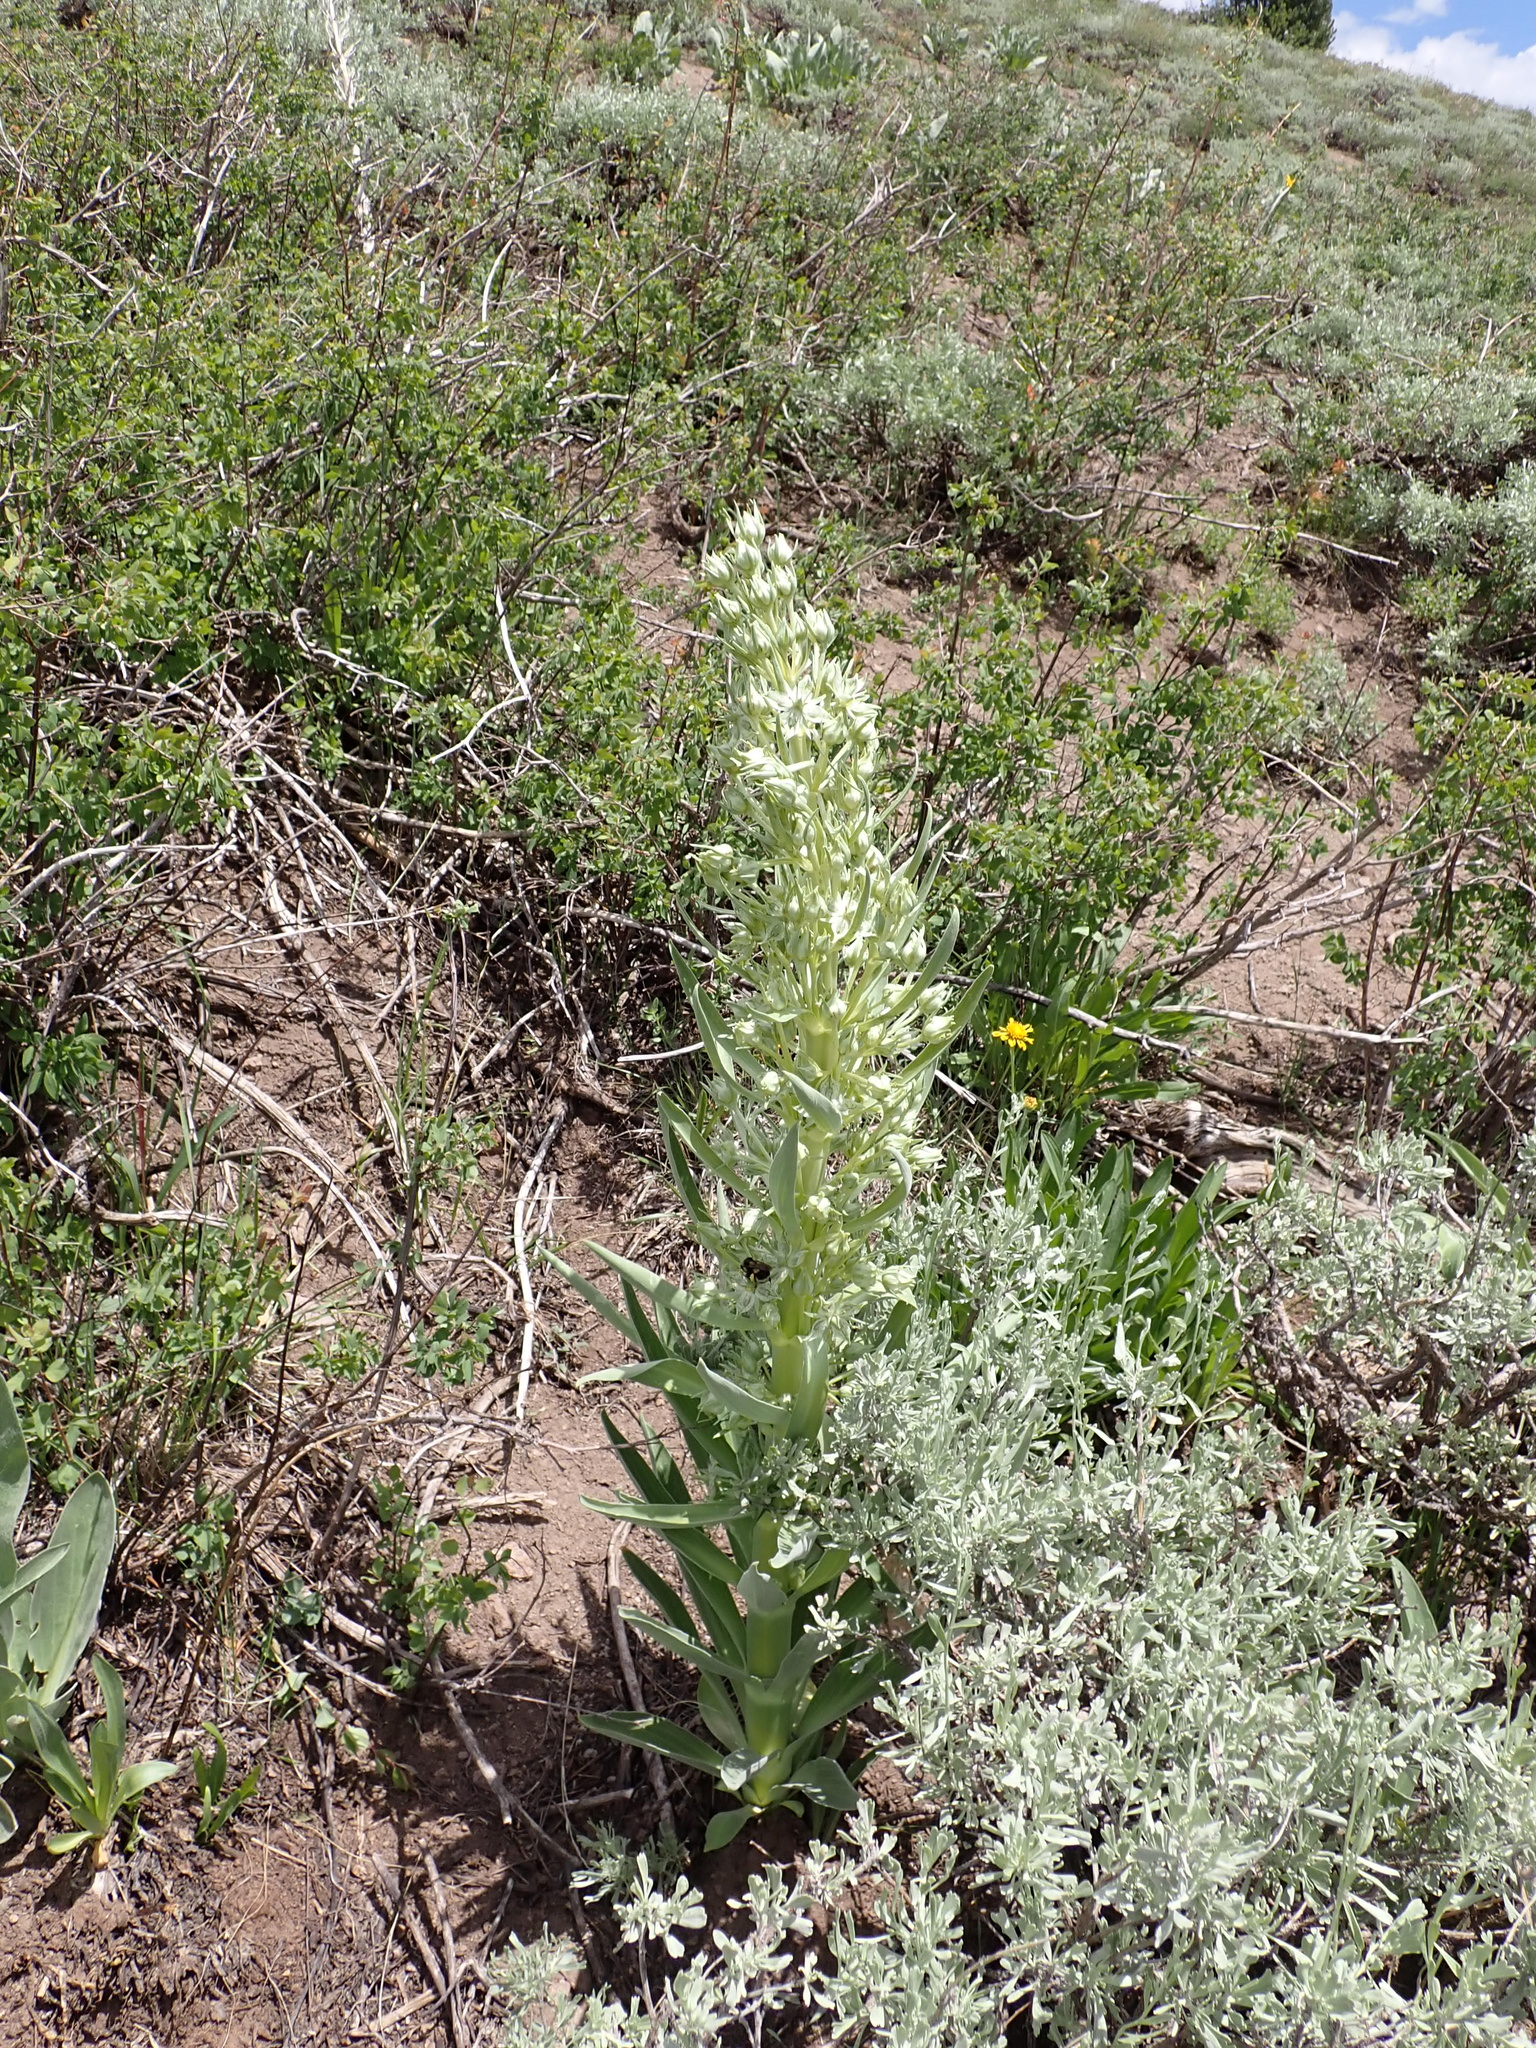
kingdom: Plantae
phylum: Tracheophyta
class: Magnoliopsida
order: Gentianales
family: Gentianaceae
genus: Frasera
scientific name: Frasera speciosa
